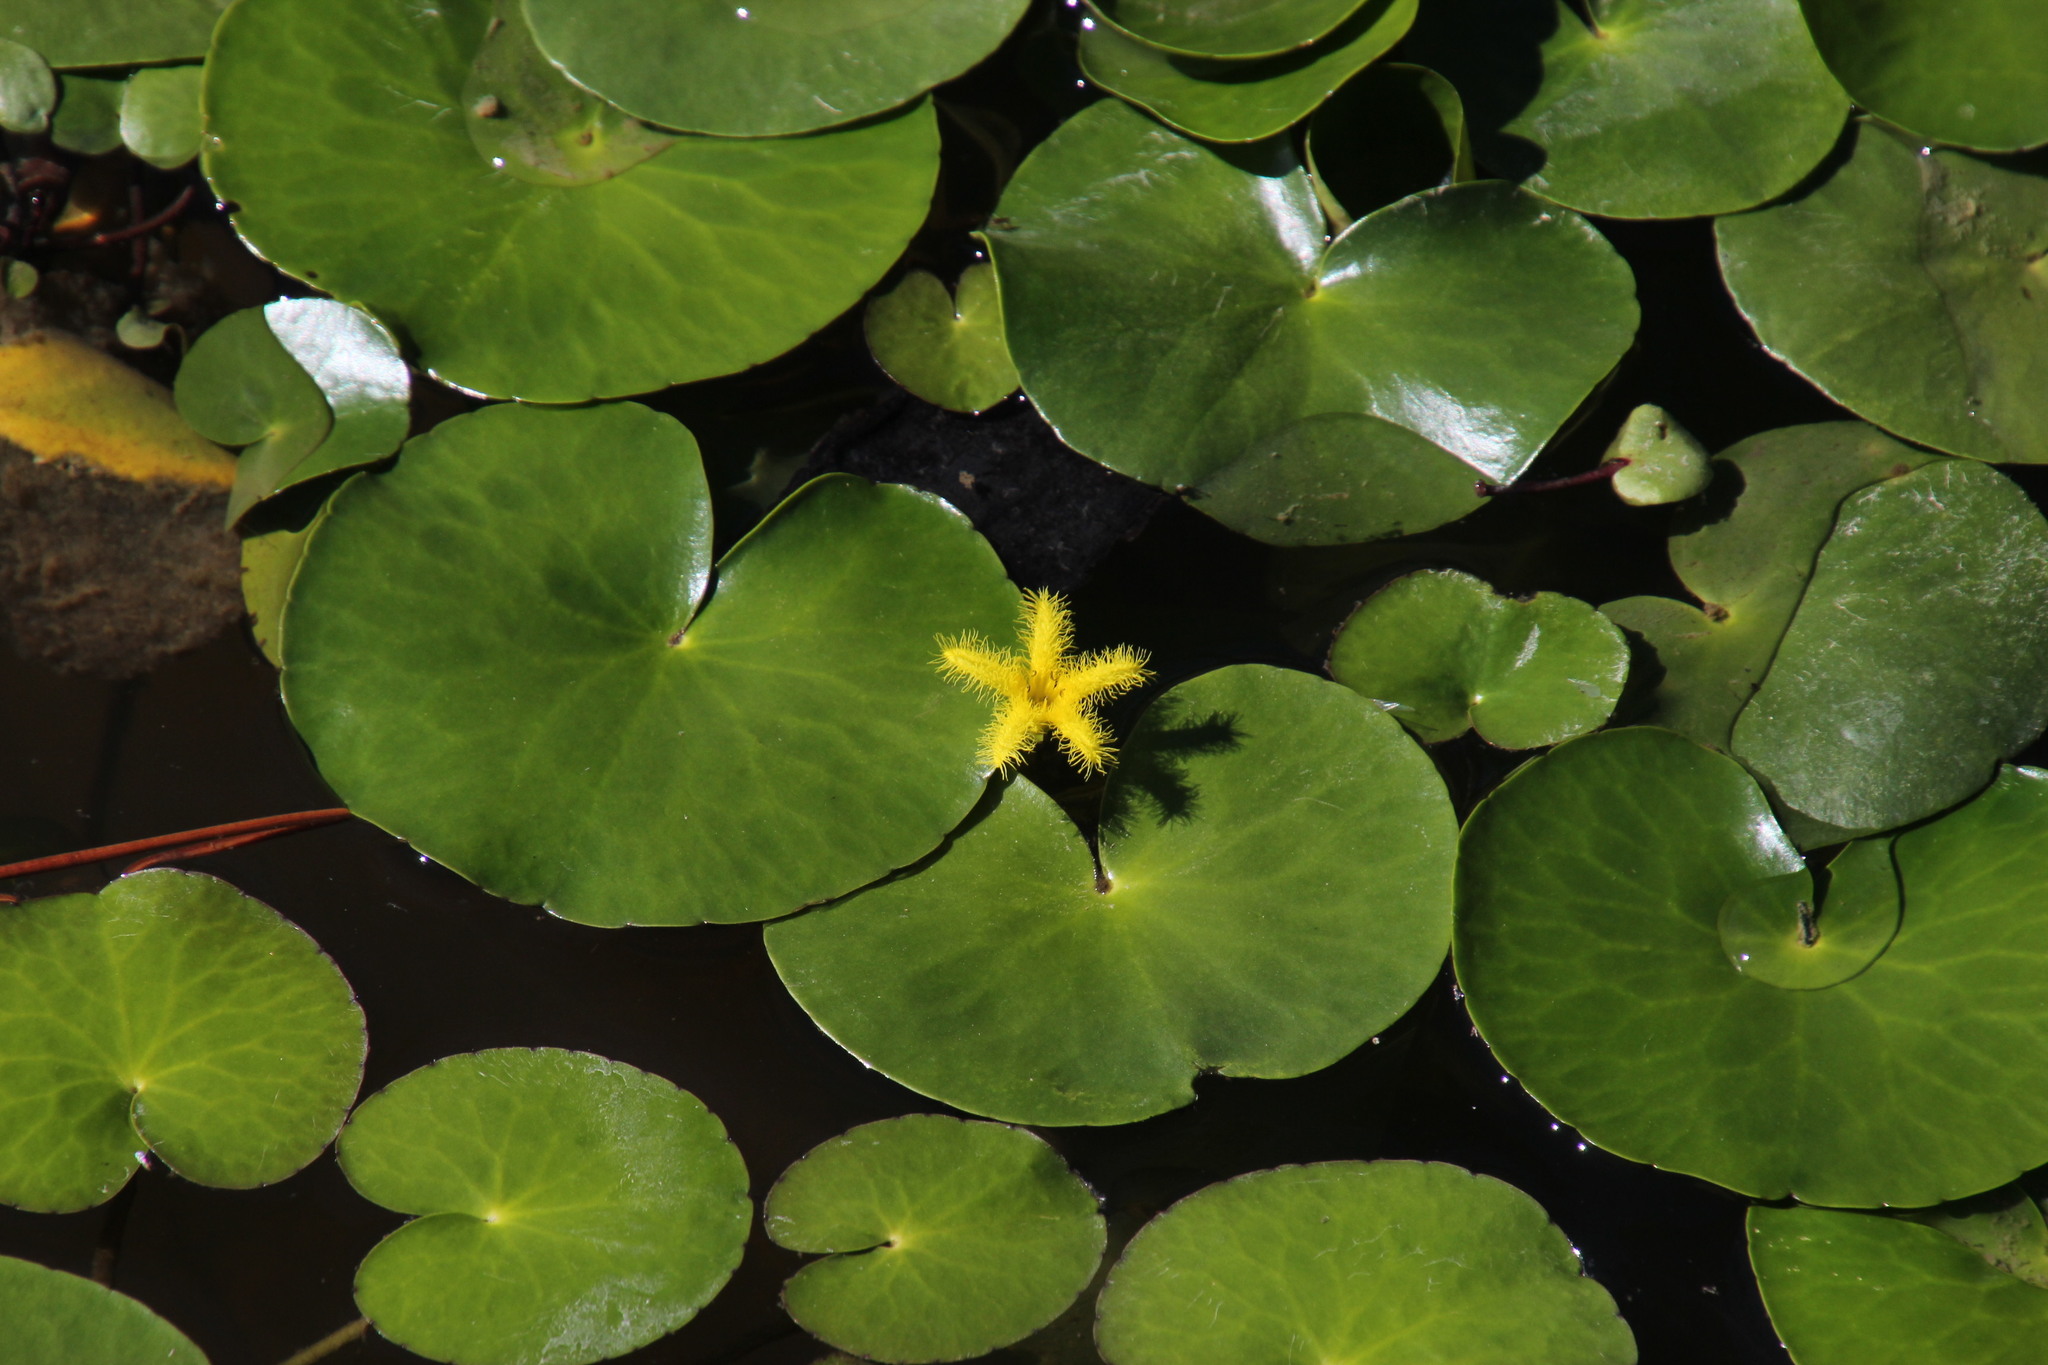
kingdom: Plantae
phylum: Tracheophyta
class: Magnoliopsida
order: Asterales
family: Menyanthaceae
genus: Nymphoides
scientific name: Nymphoides thunbergiana
